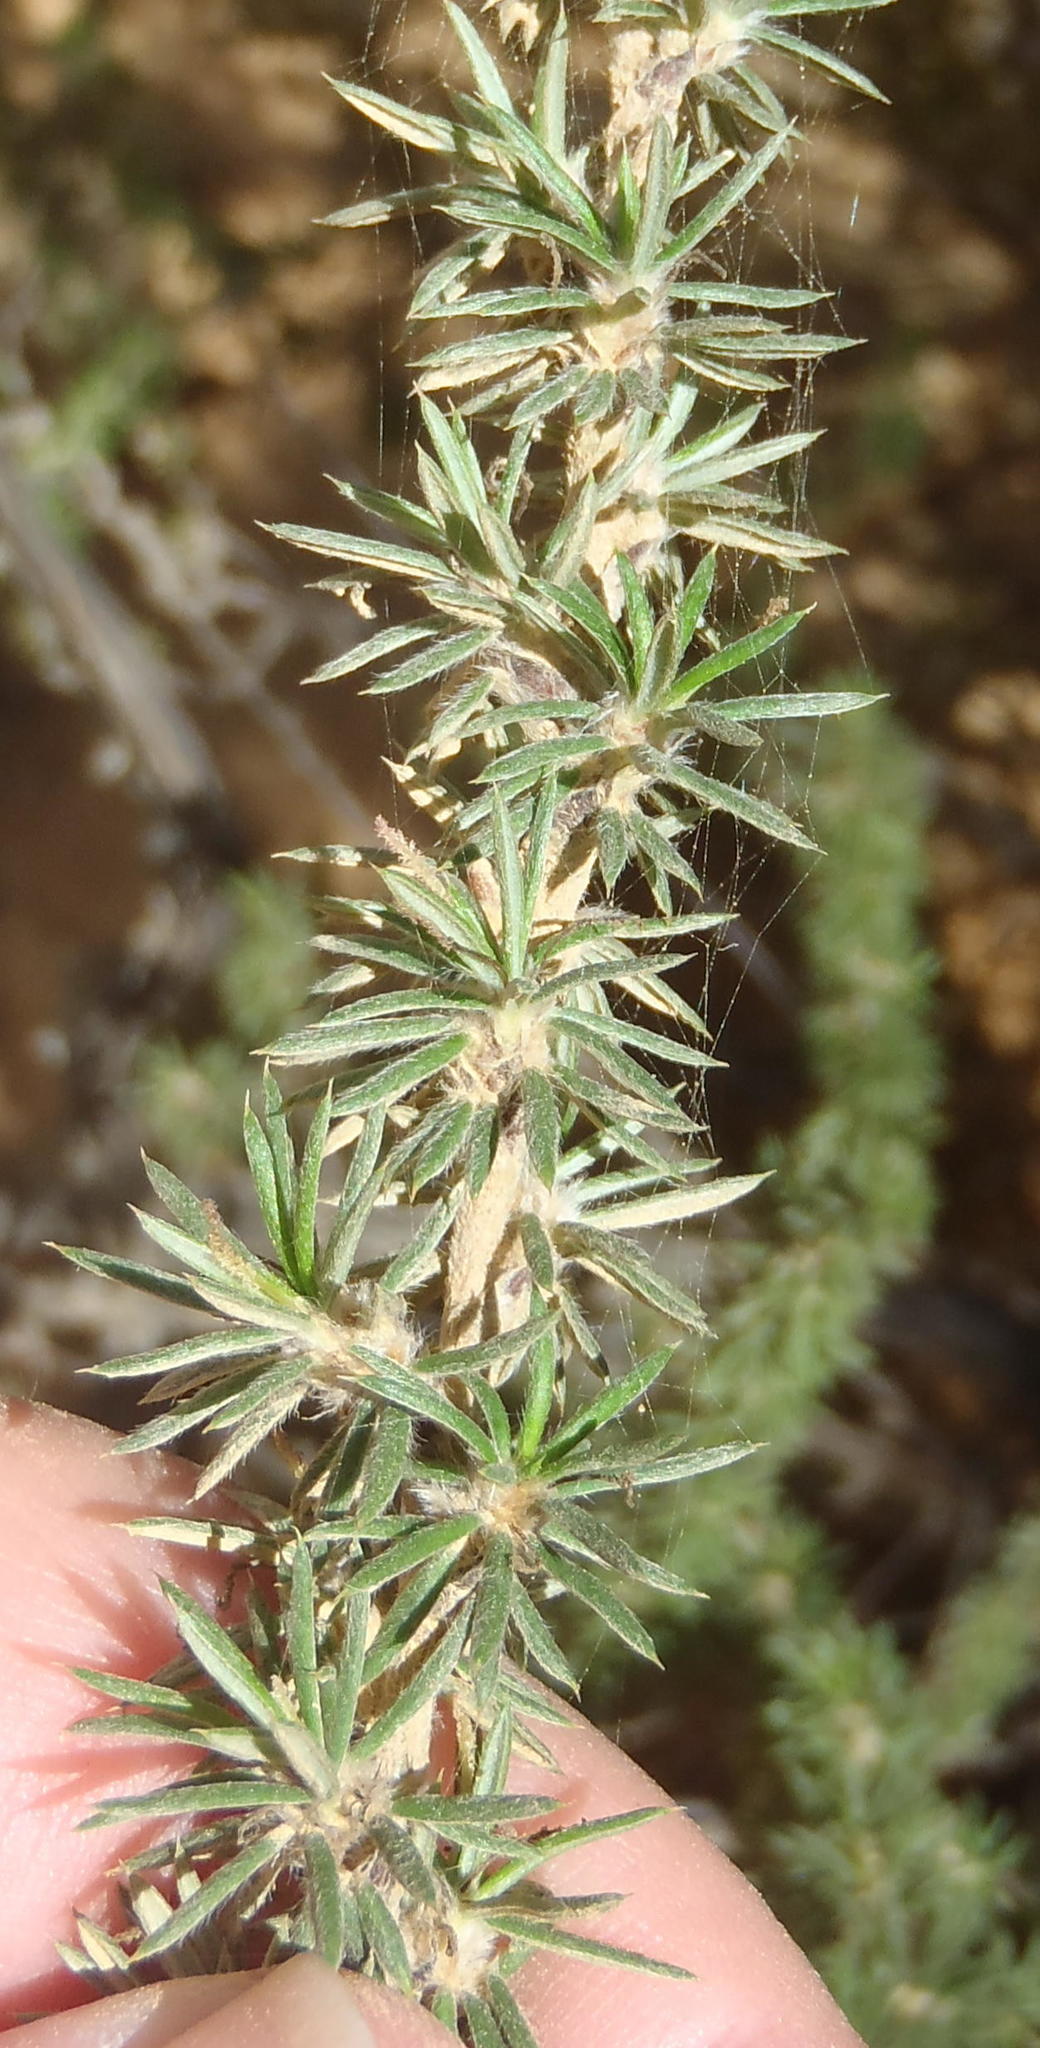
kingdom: Plantae
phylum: Tracheophyta
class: Magnoliopsida
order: Ericales
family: Ericaceae
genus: Erica
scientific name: Erica densifolia
